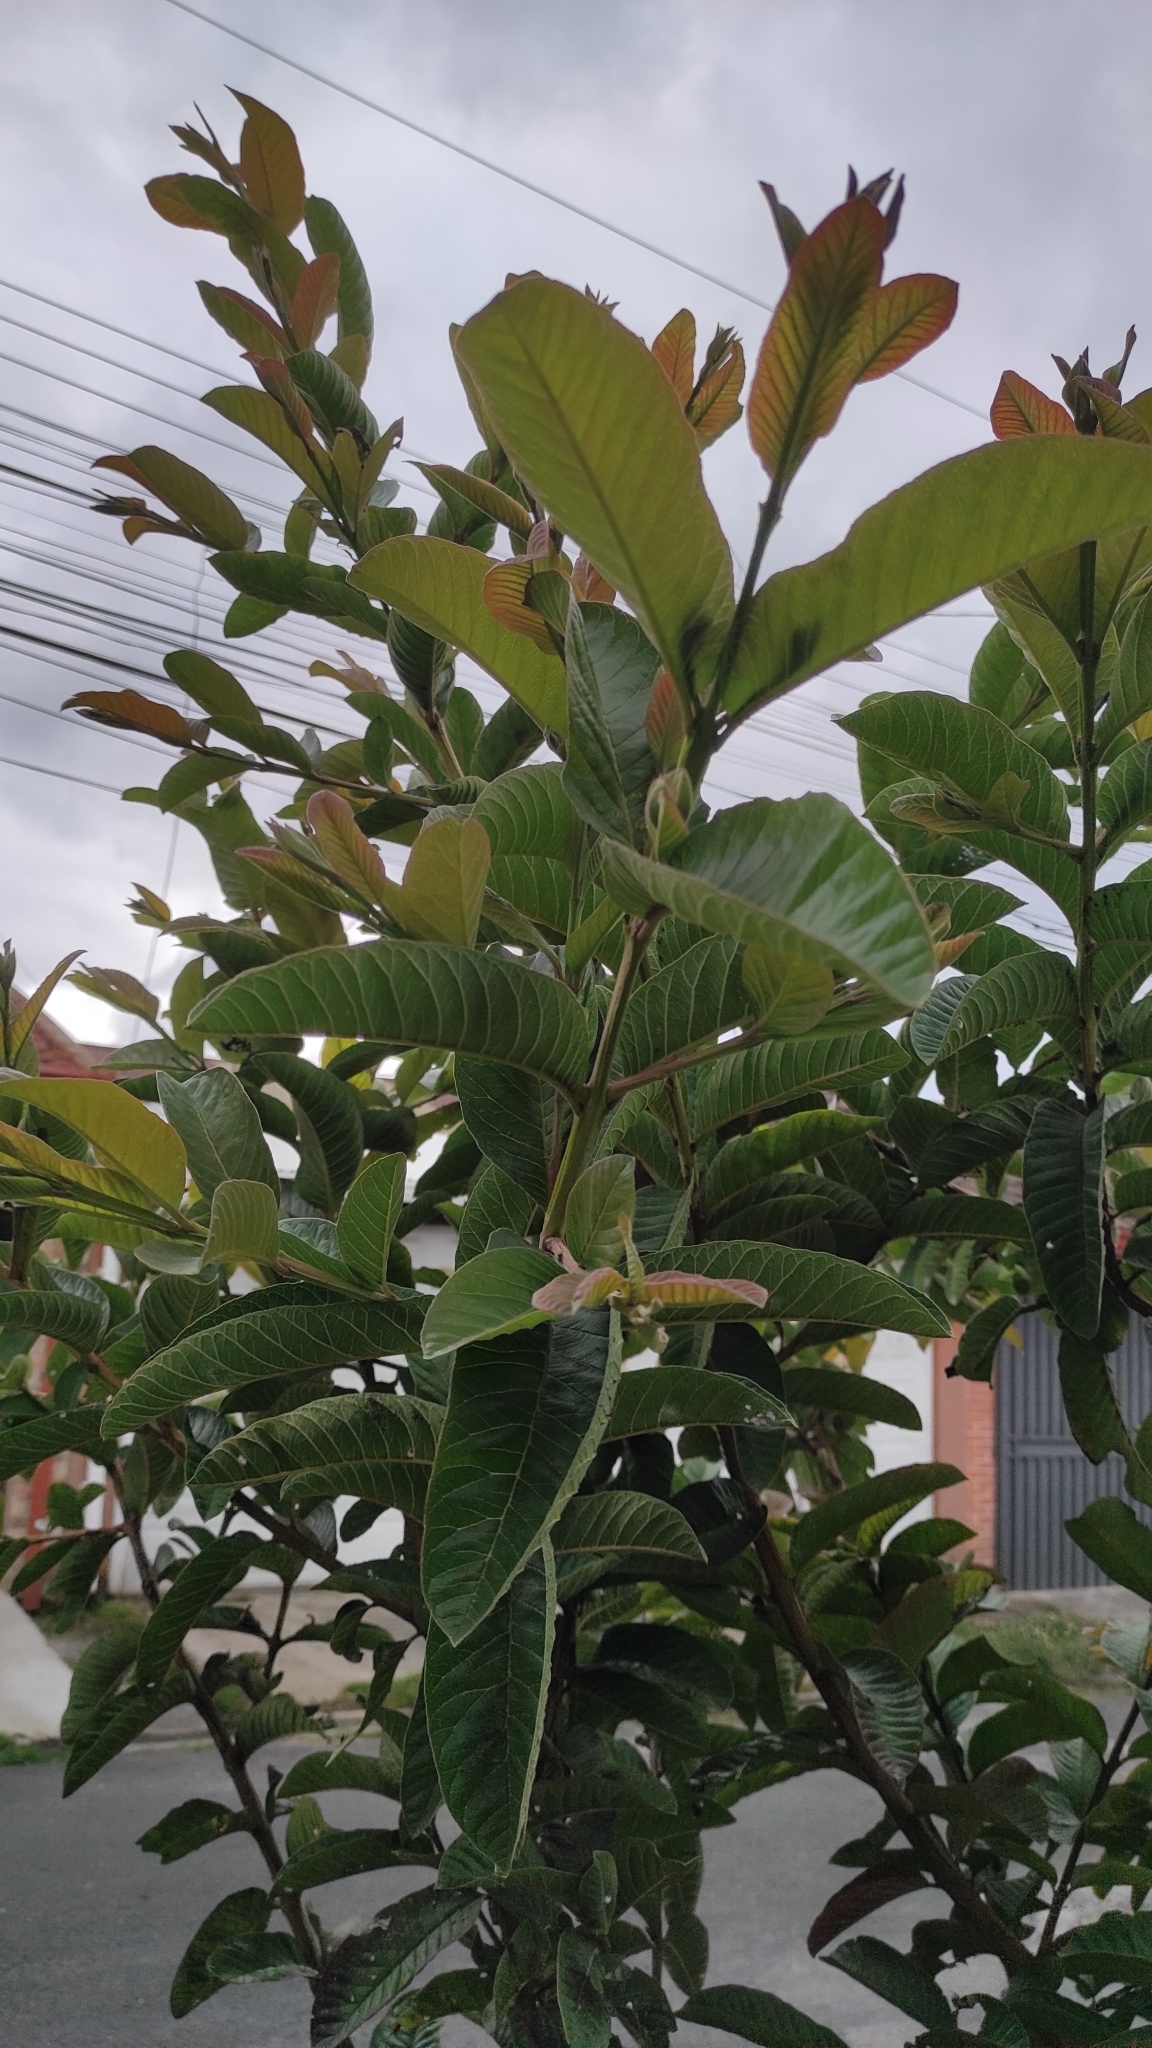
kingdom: Plantae
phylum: Tracheophyta
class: Magnoliopsida
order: Myrtales
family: Myrtaceae
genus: Psidium
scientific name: Psidium guajava
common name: Guava
